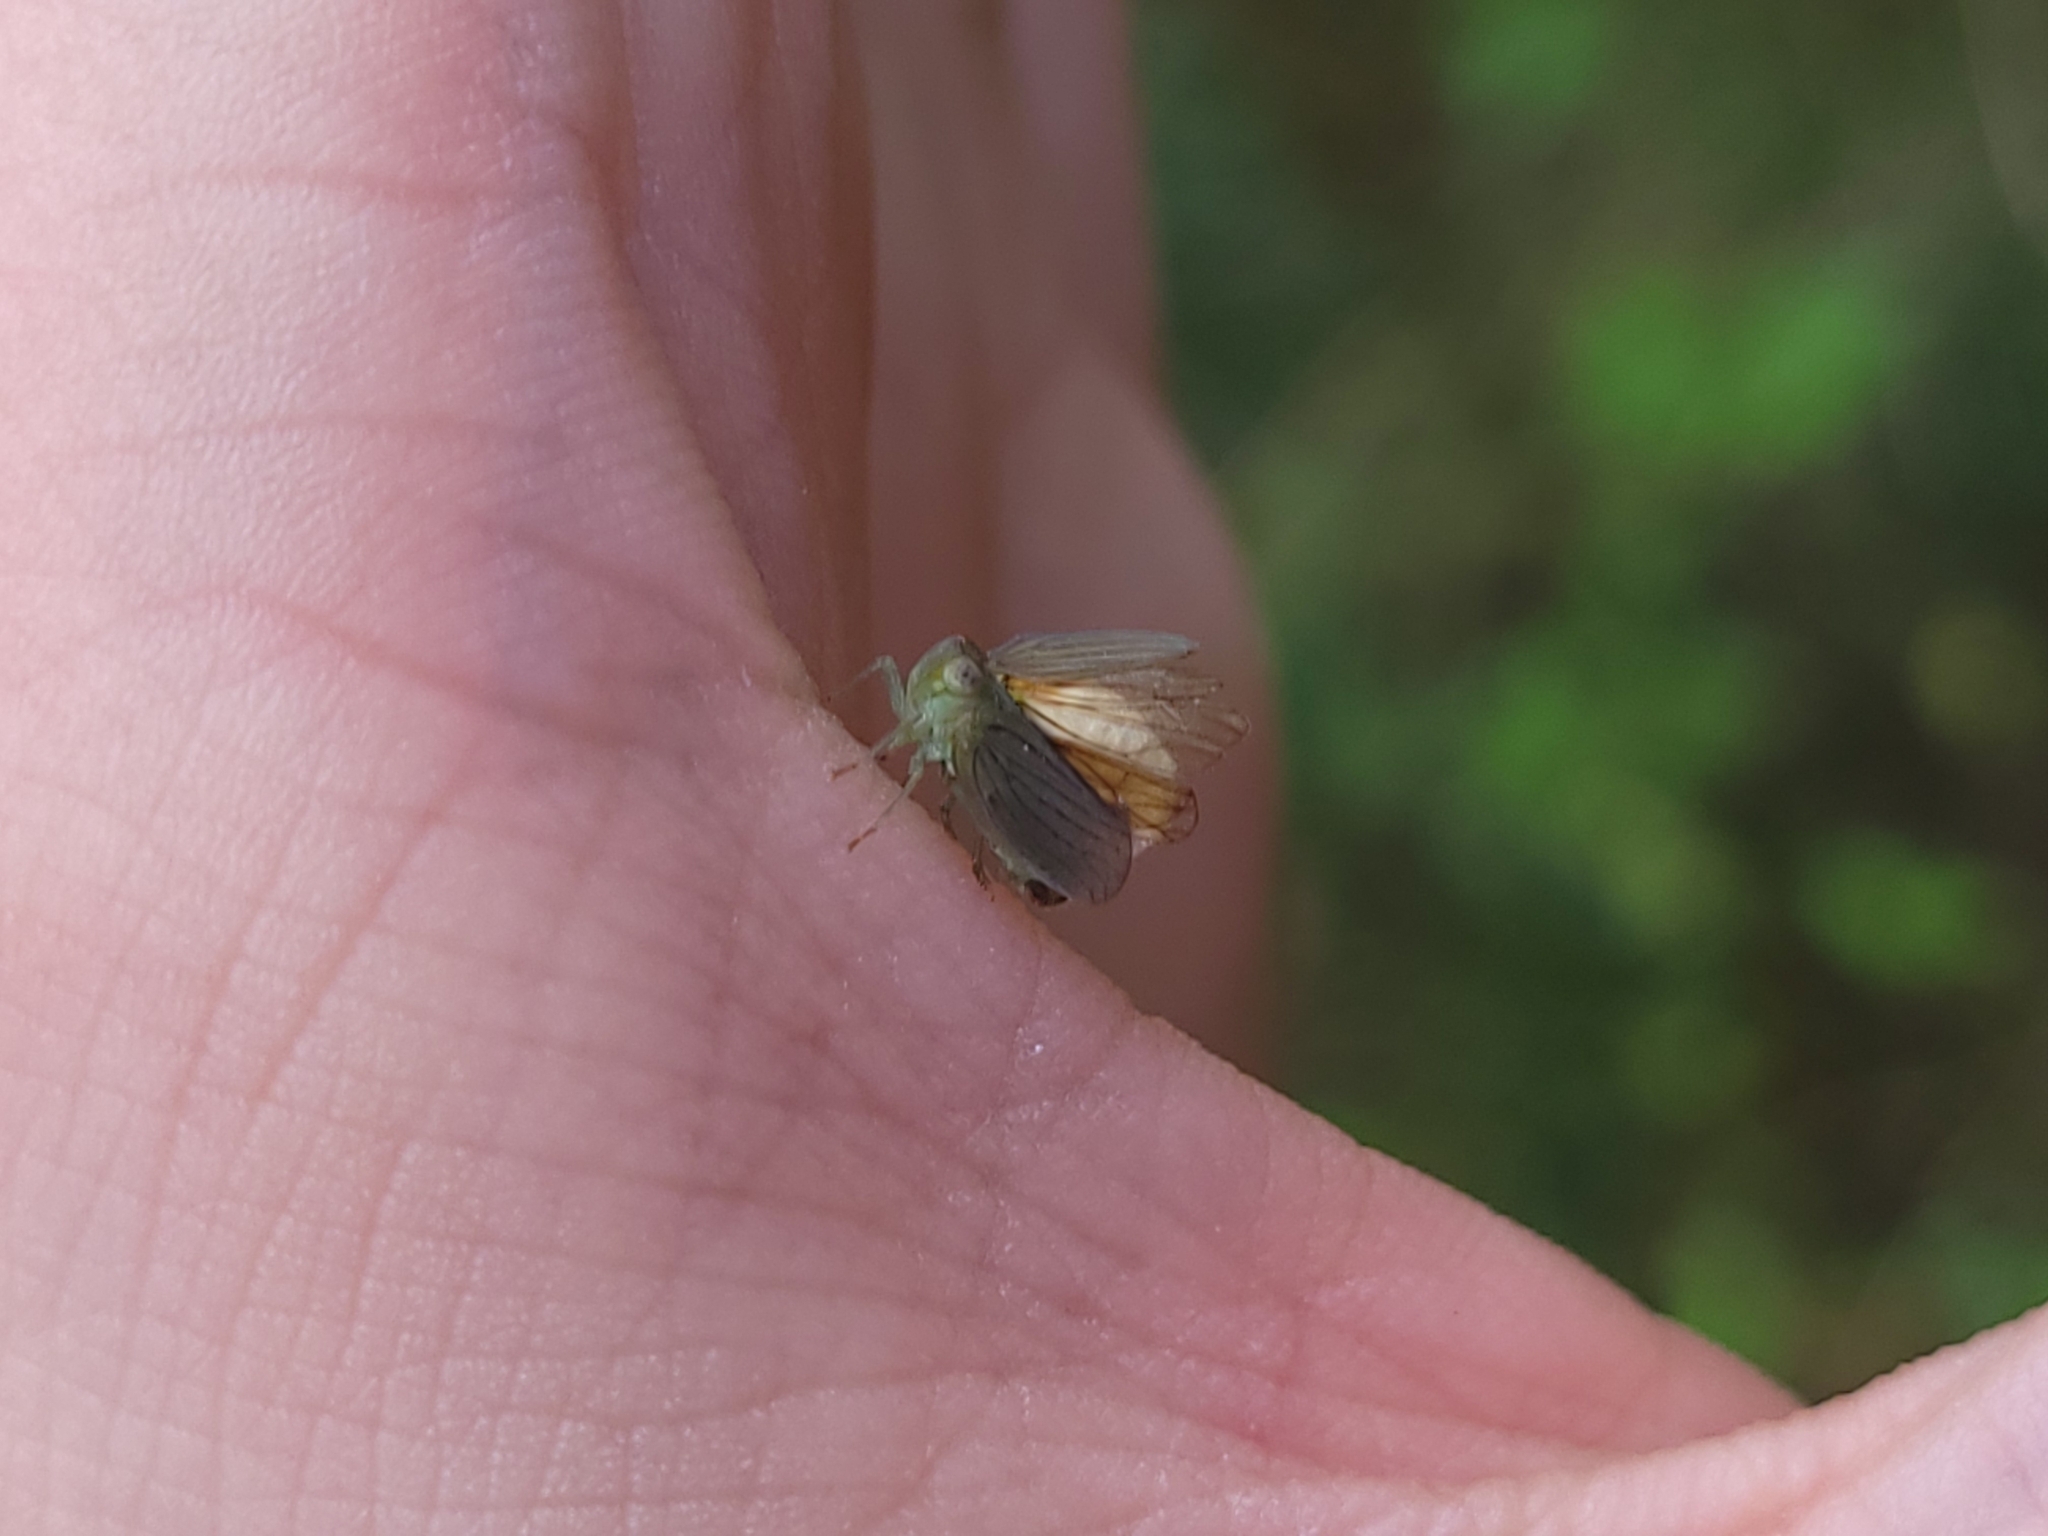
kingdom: Animalia
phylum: Arthropoda
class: Insecta
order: Lepidoptera
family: Epipyropidae
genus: Fulgoraecia
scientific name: Fulgoraecia exigua
